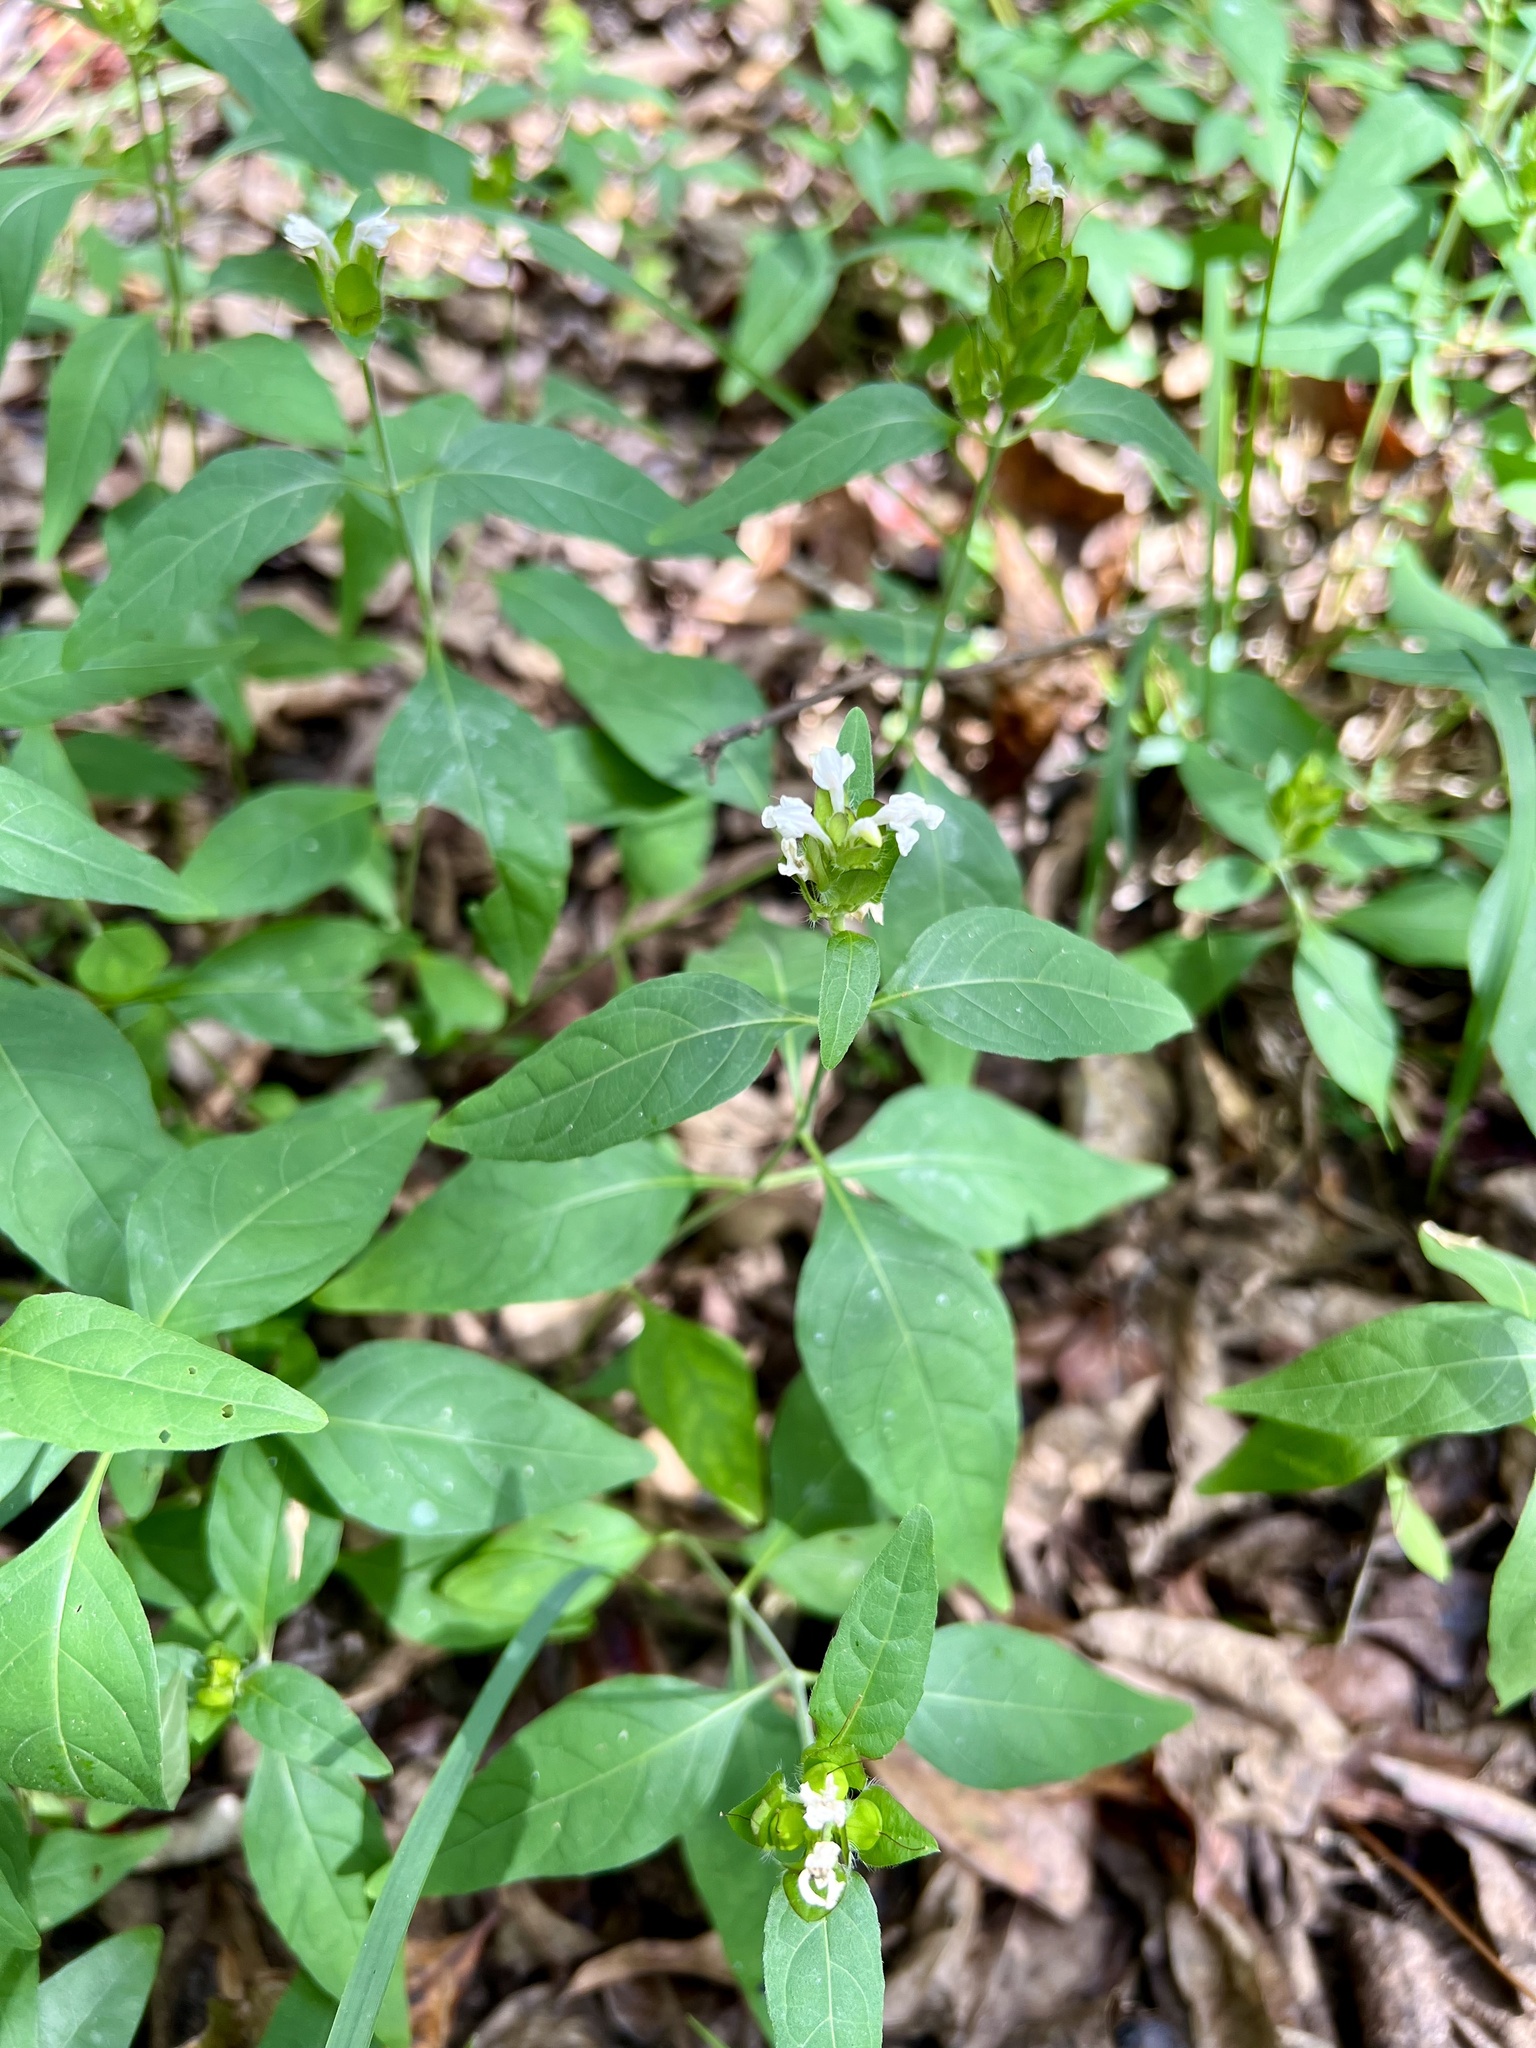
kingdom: Plantae
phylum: Tracheophyta
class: Magnoliopsida
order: Lamiales
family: Acanthaceae
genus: Yeatesia
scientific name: Yeatesia viridiflora
